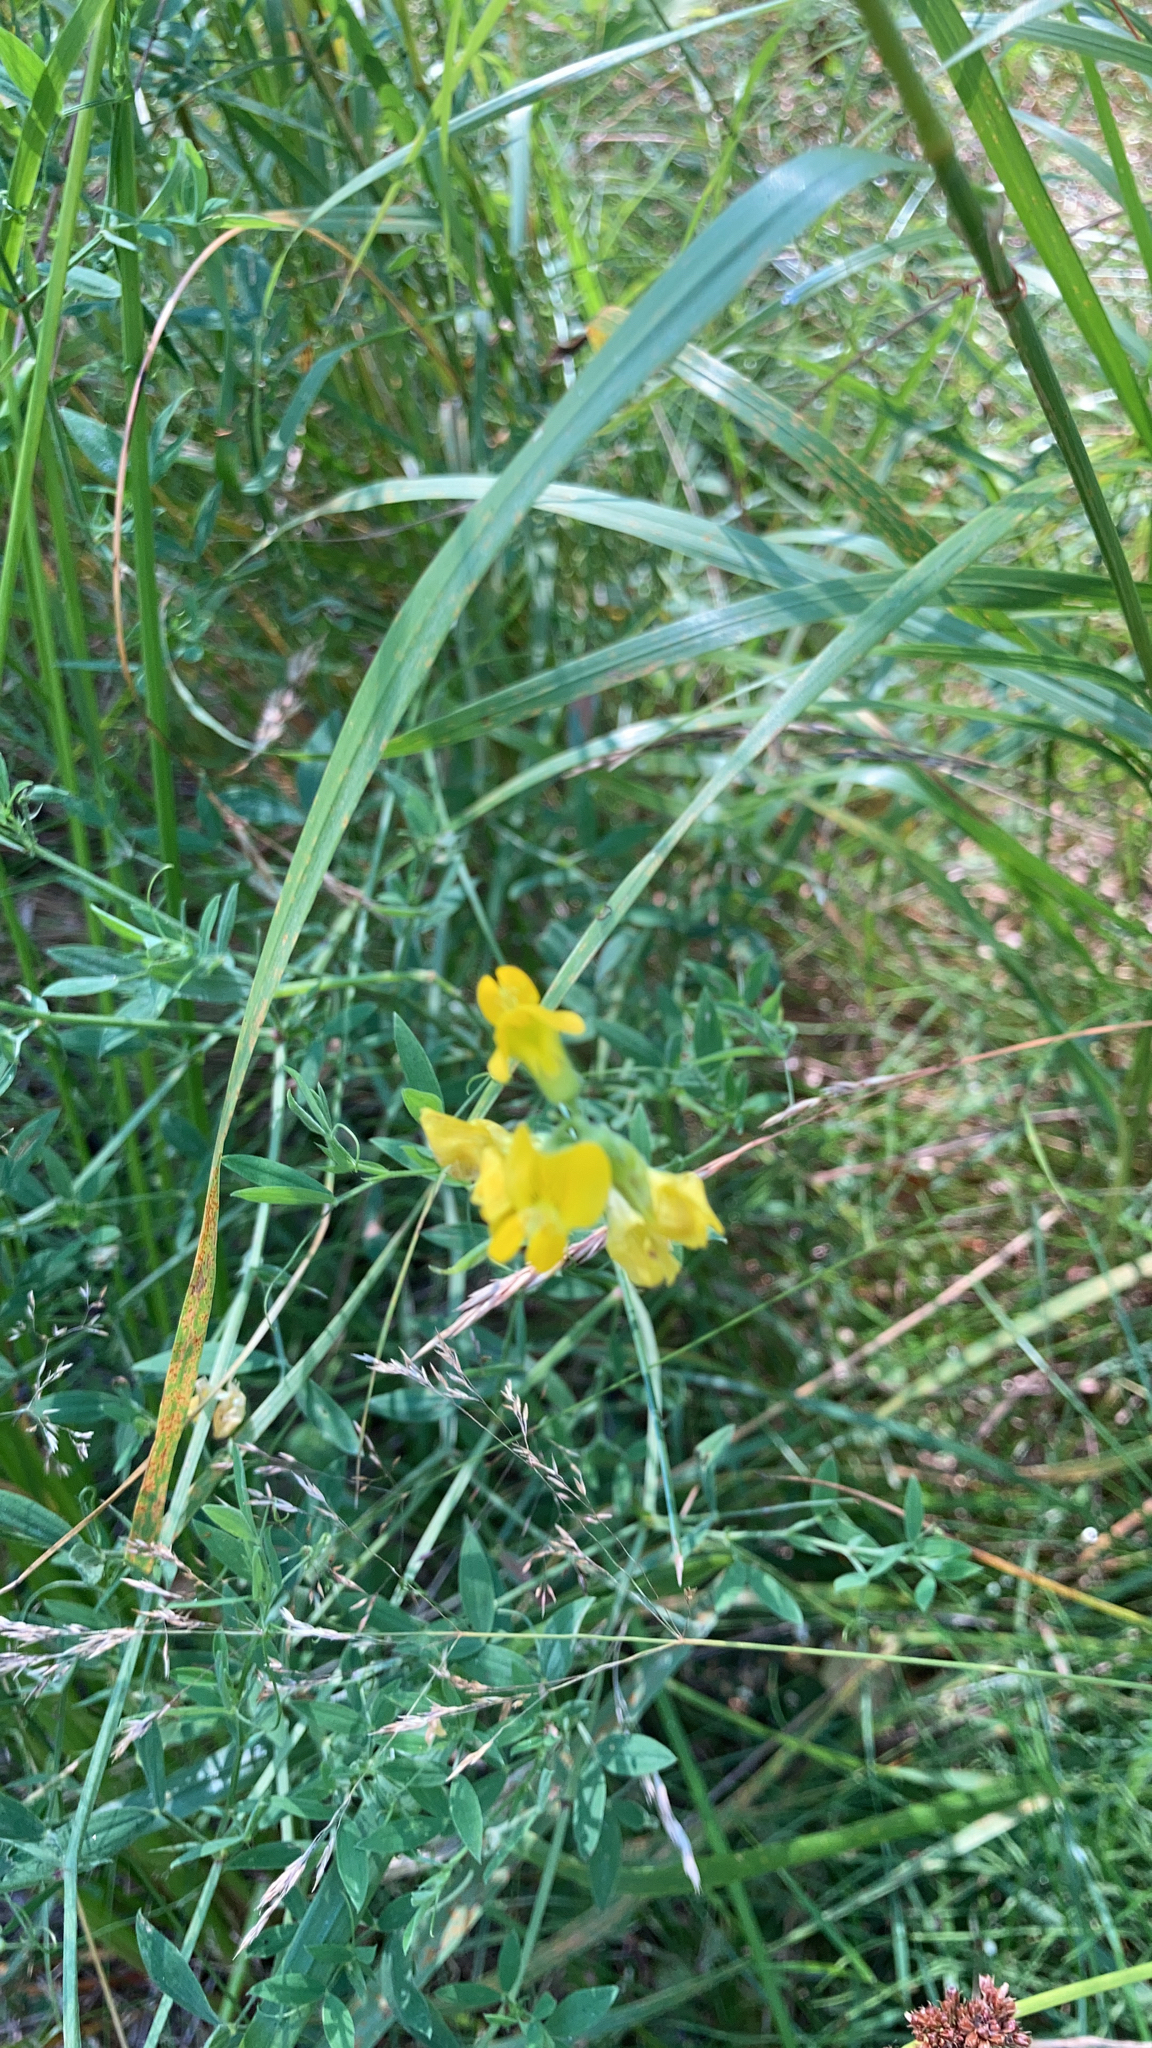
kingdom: Plantae
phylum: Tracheophyta
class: Magnoliopsida
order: Fabales
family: Fabaceae
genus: Lathyrus
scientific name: Lathyrus pratensis
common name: Meadow vetchling
